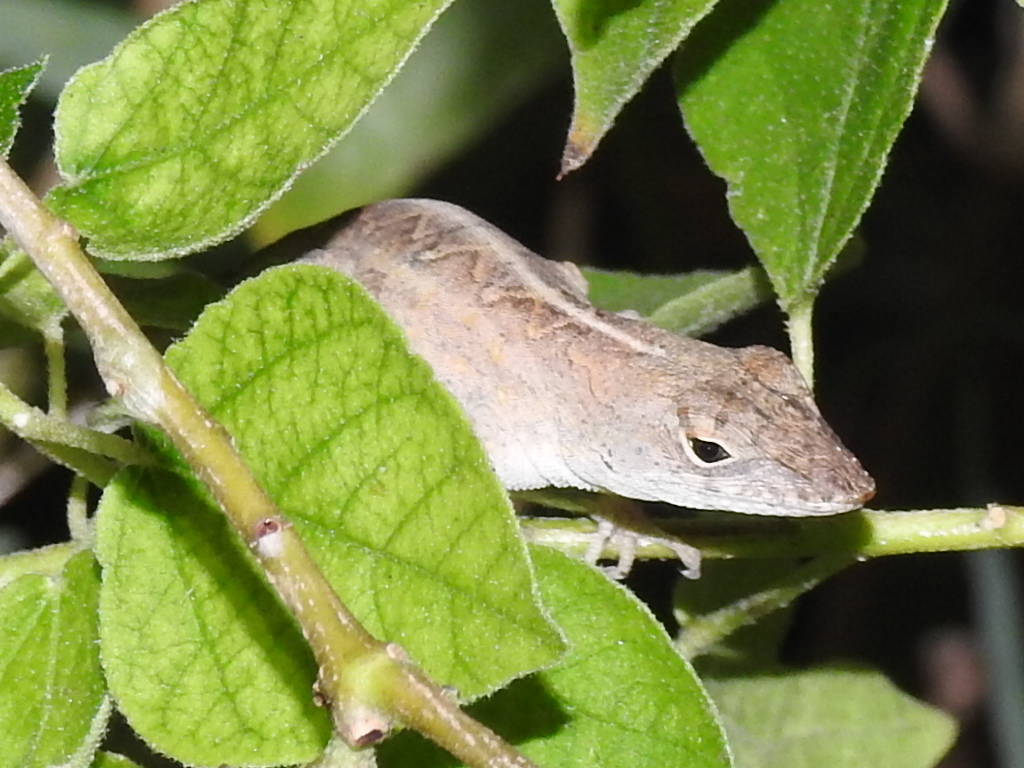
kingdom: Animalia
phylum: Chordata
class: Squamata
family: Dactyloidae
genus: Anolis
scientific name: Anolis sagrei
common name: Brown anole
